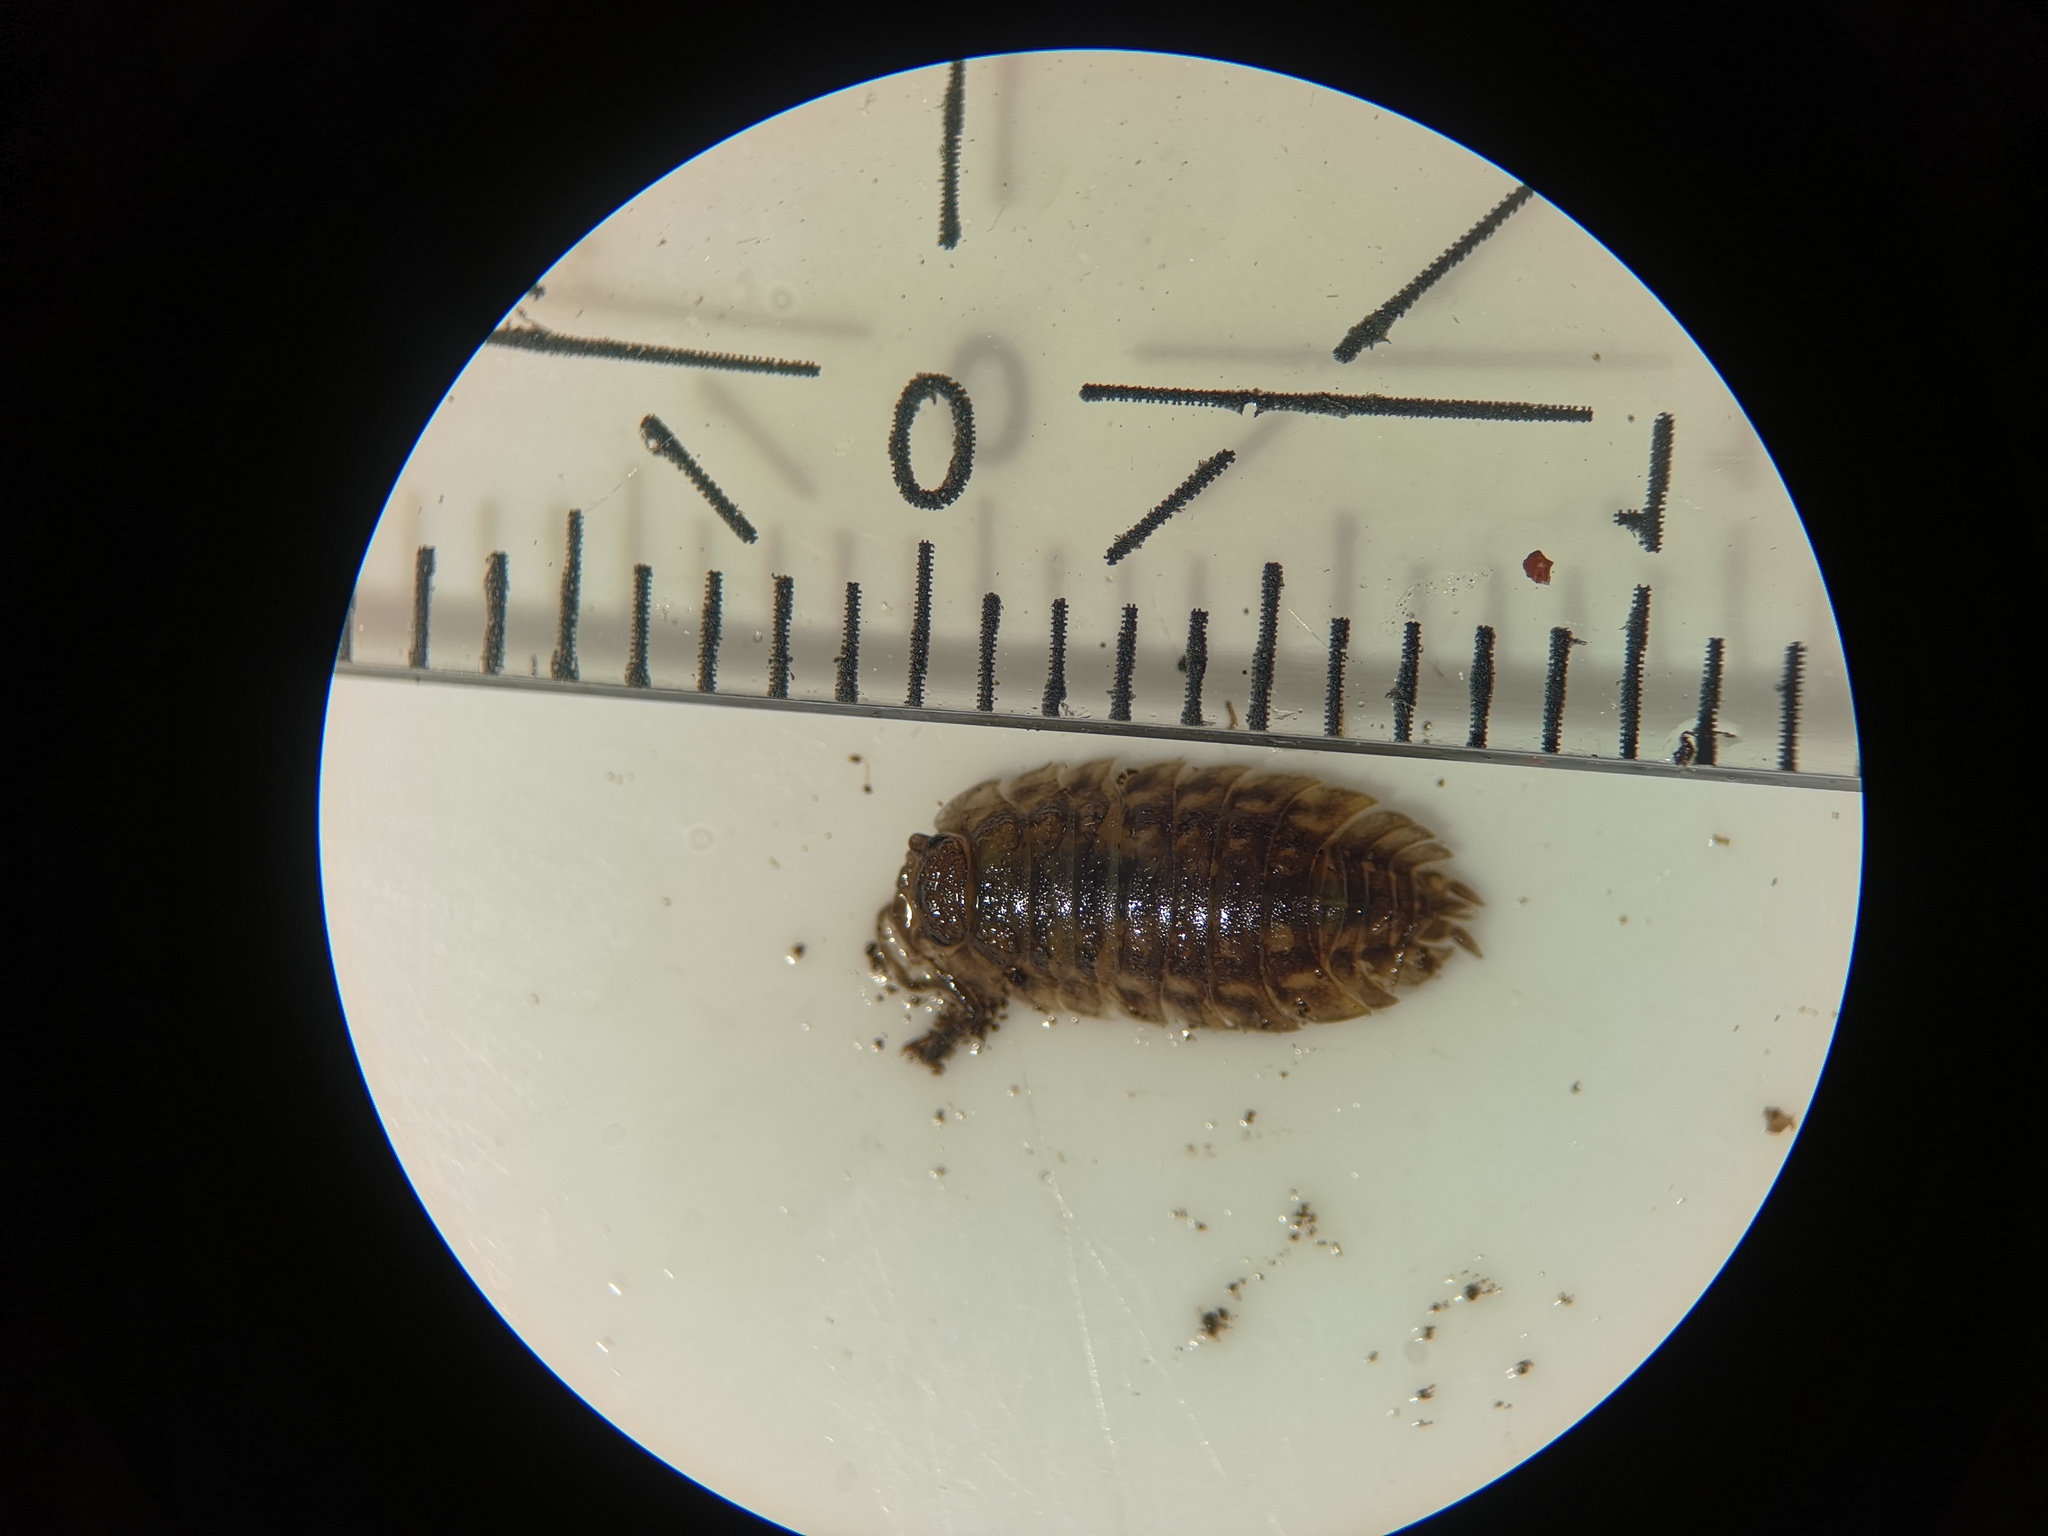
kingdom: Animalia
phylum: Arthropoda
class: Malacostraca
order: Isopoda
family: Oniscidae
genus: Oniscus
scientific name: Oniscus asellus
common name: Common shiny woodlouse
